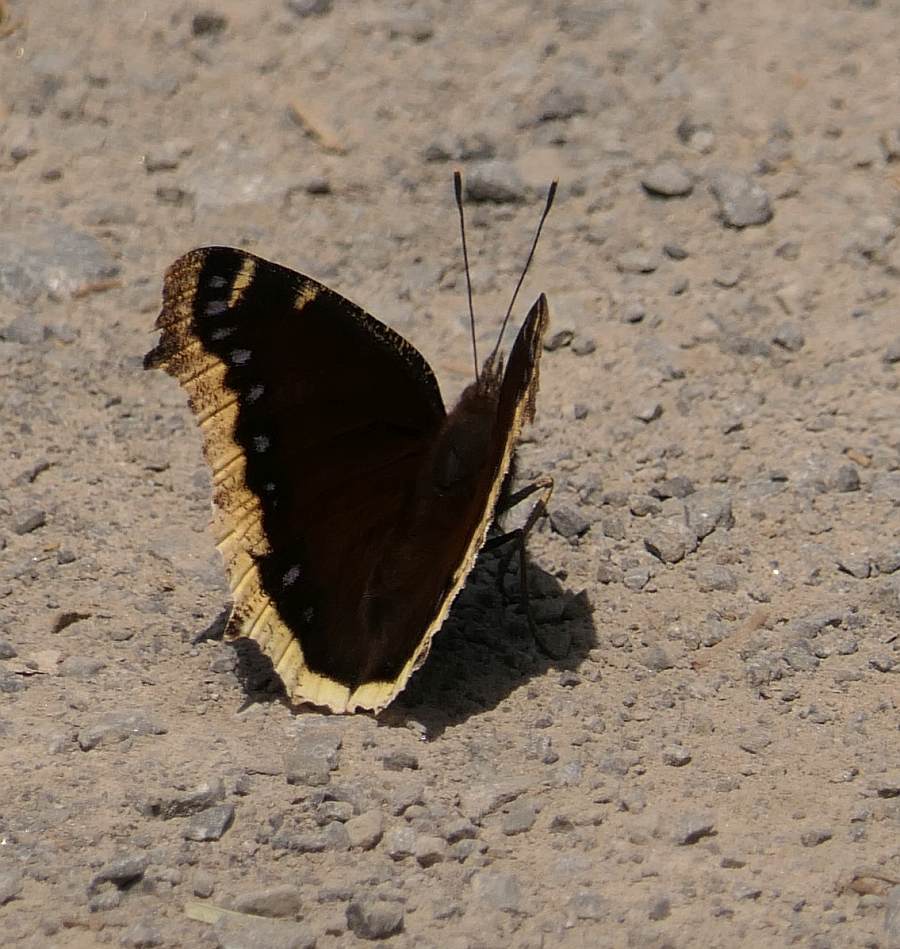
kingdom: Animalia
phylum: Arthropoda
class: Insecta
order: Lepidoptera
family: Nymphalidae
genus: Nymphalis
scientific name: Nymphalis antiopa
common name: Camberwell beauty
